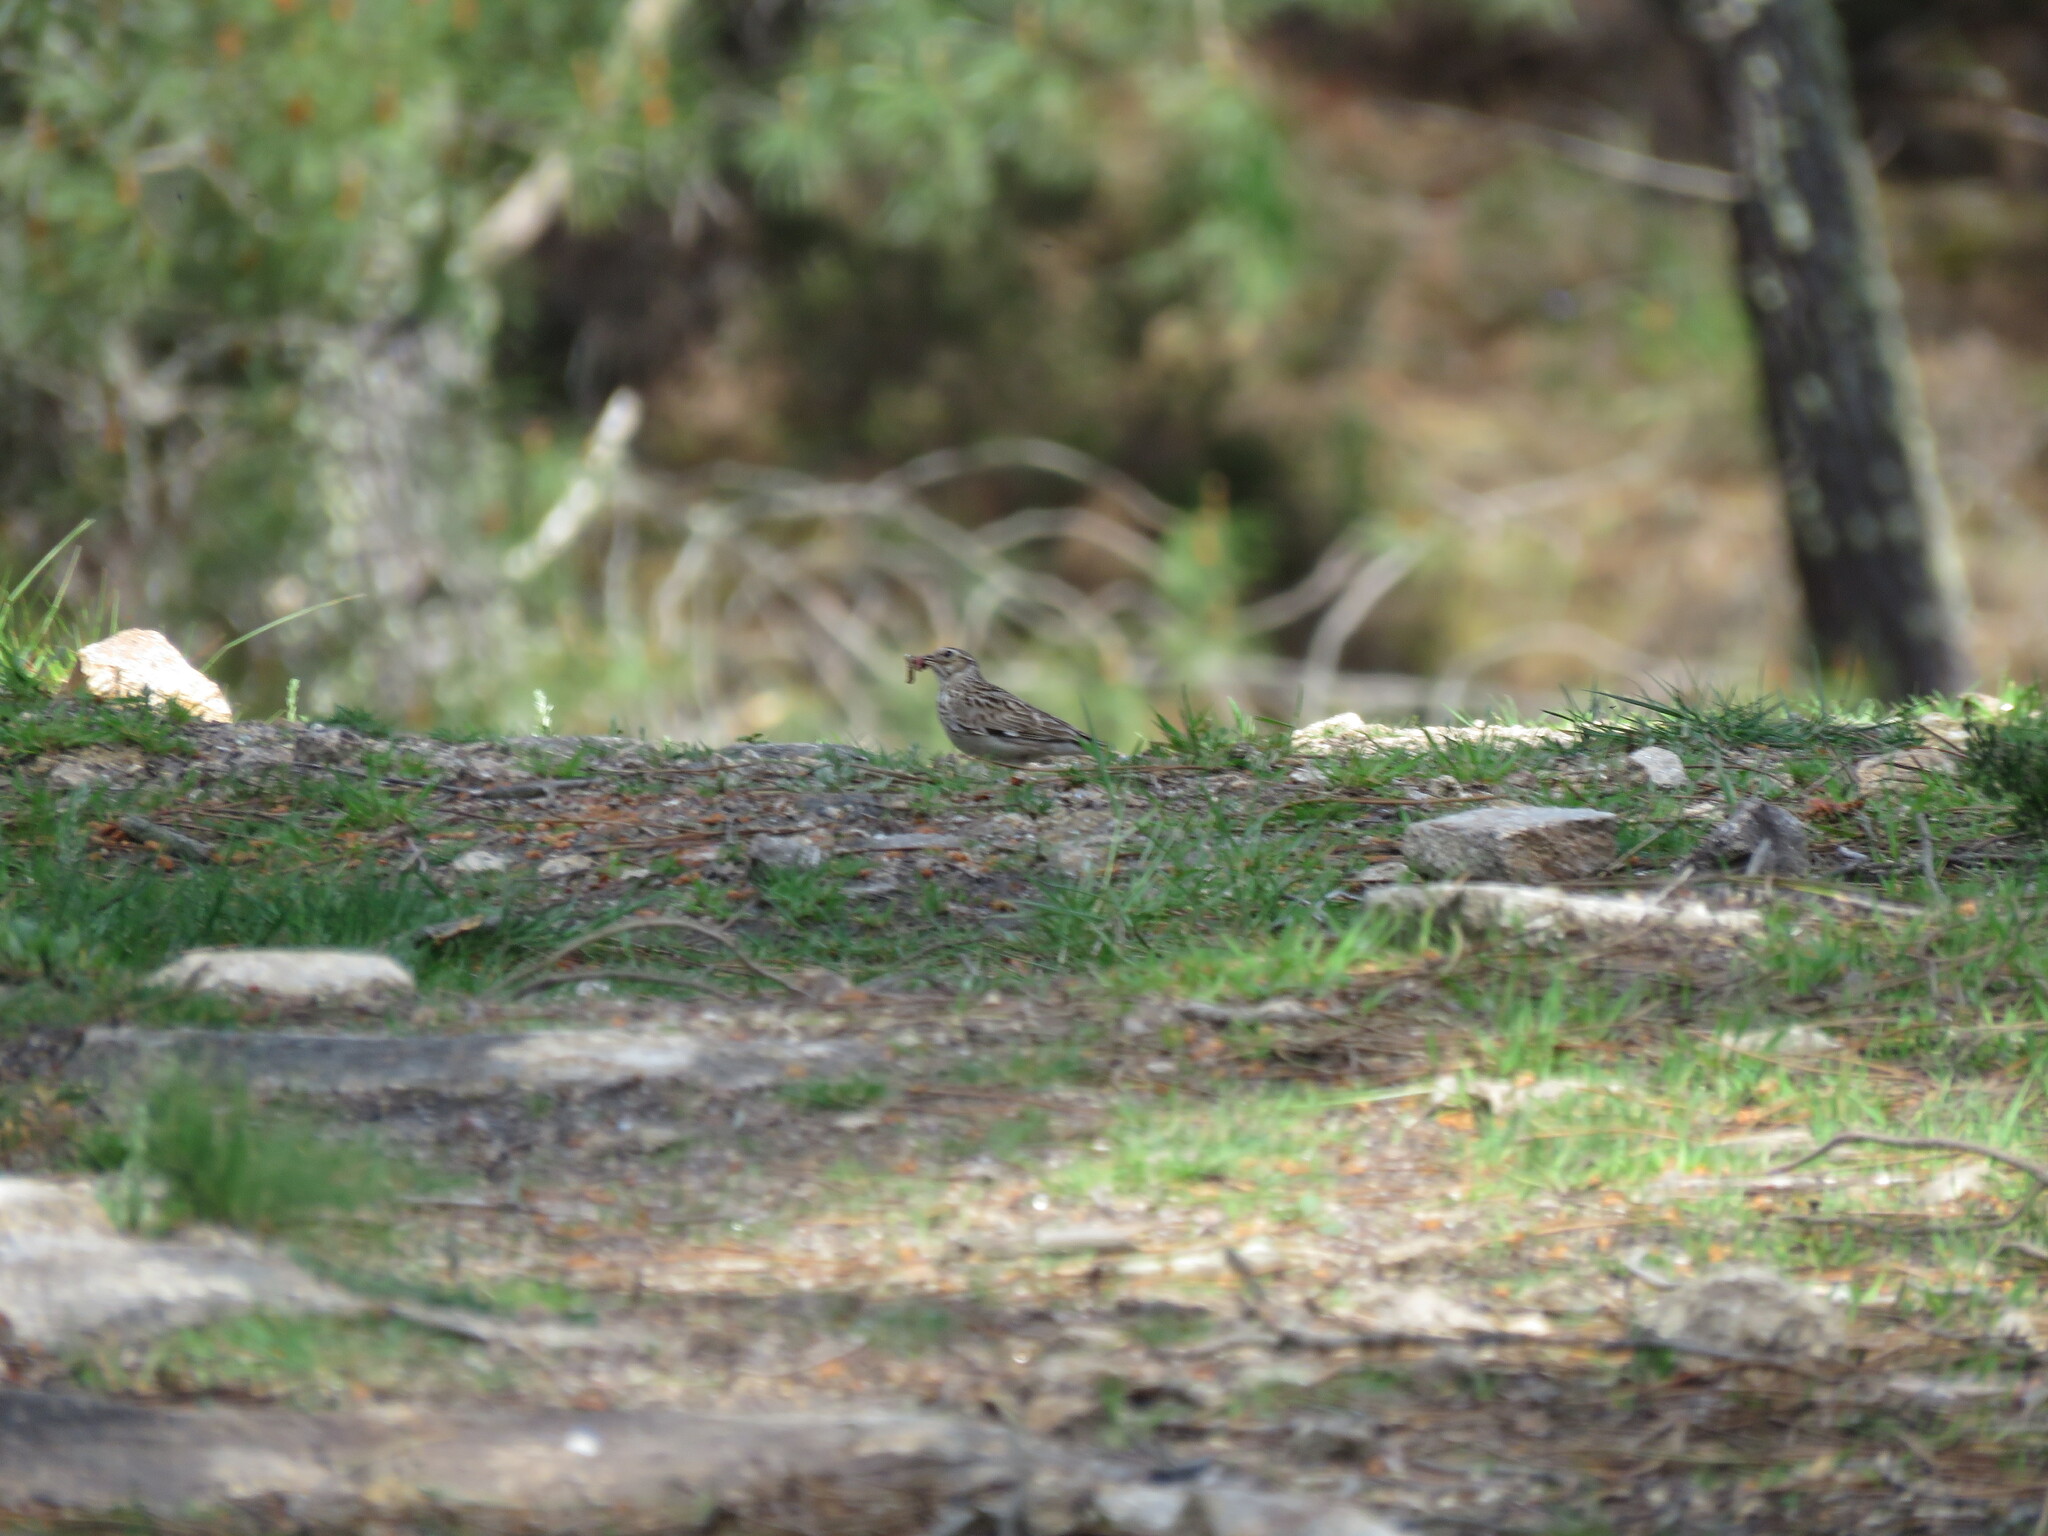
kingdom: Animalia
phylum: Chordata
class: Aves
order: Passeriformes
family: Alaudidae
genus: Lullula
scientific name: Lullula arborea
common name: Woodlark
